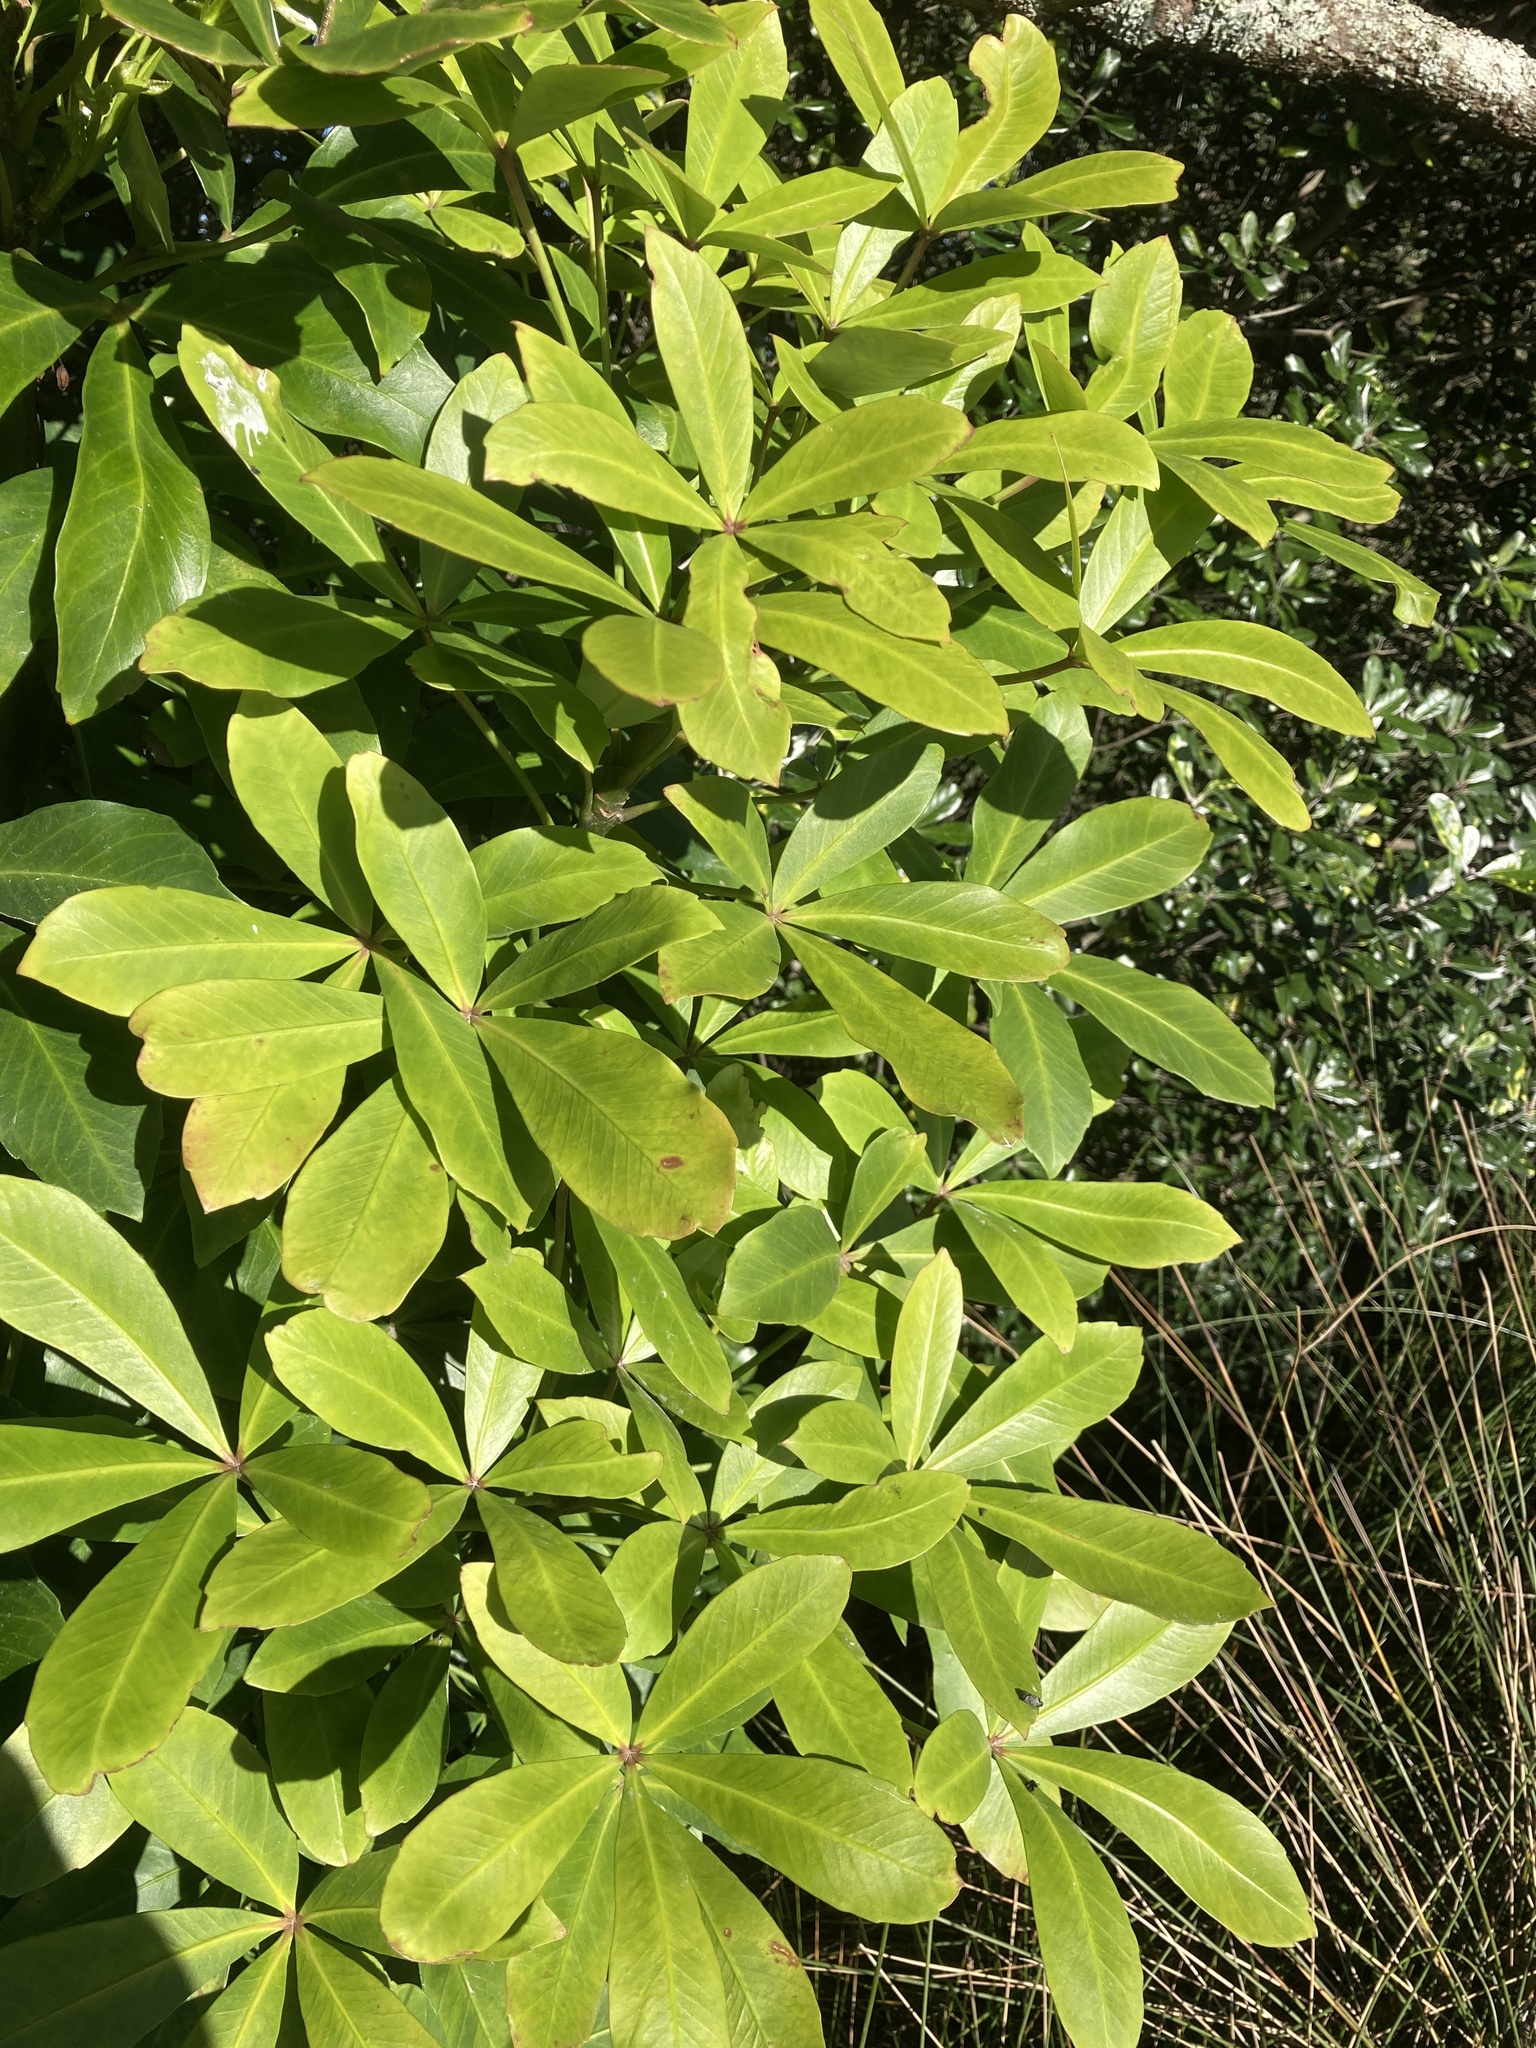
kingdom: Plantae
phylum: Tracheophyta
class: Magnoliopsida
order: Apiales
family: Araliaceae
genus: Pseudopanax
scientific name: Pseudopanax lessonii
